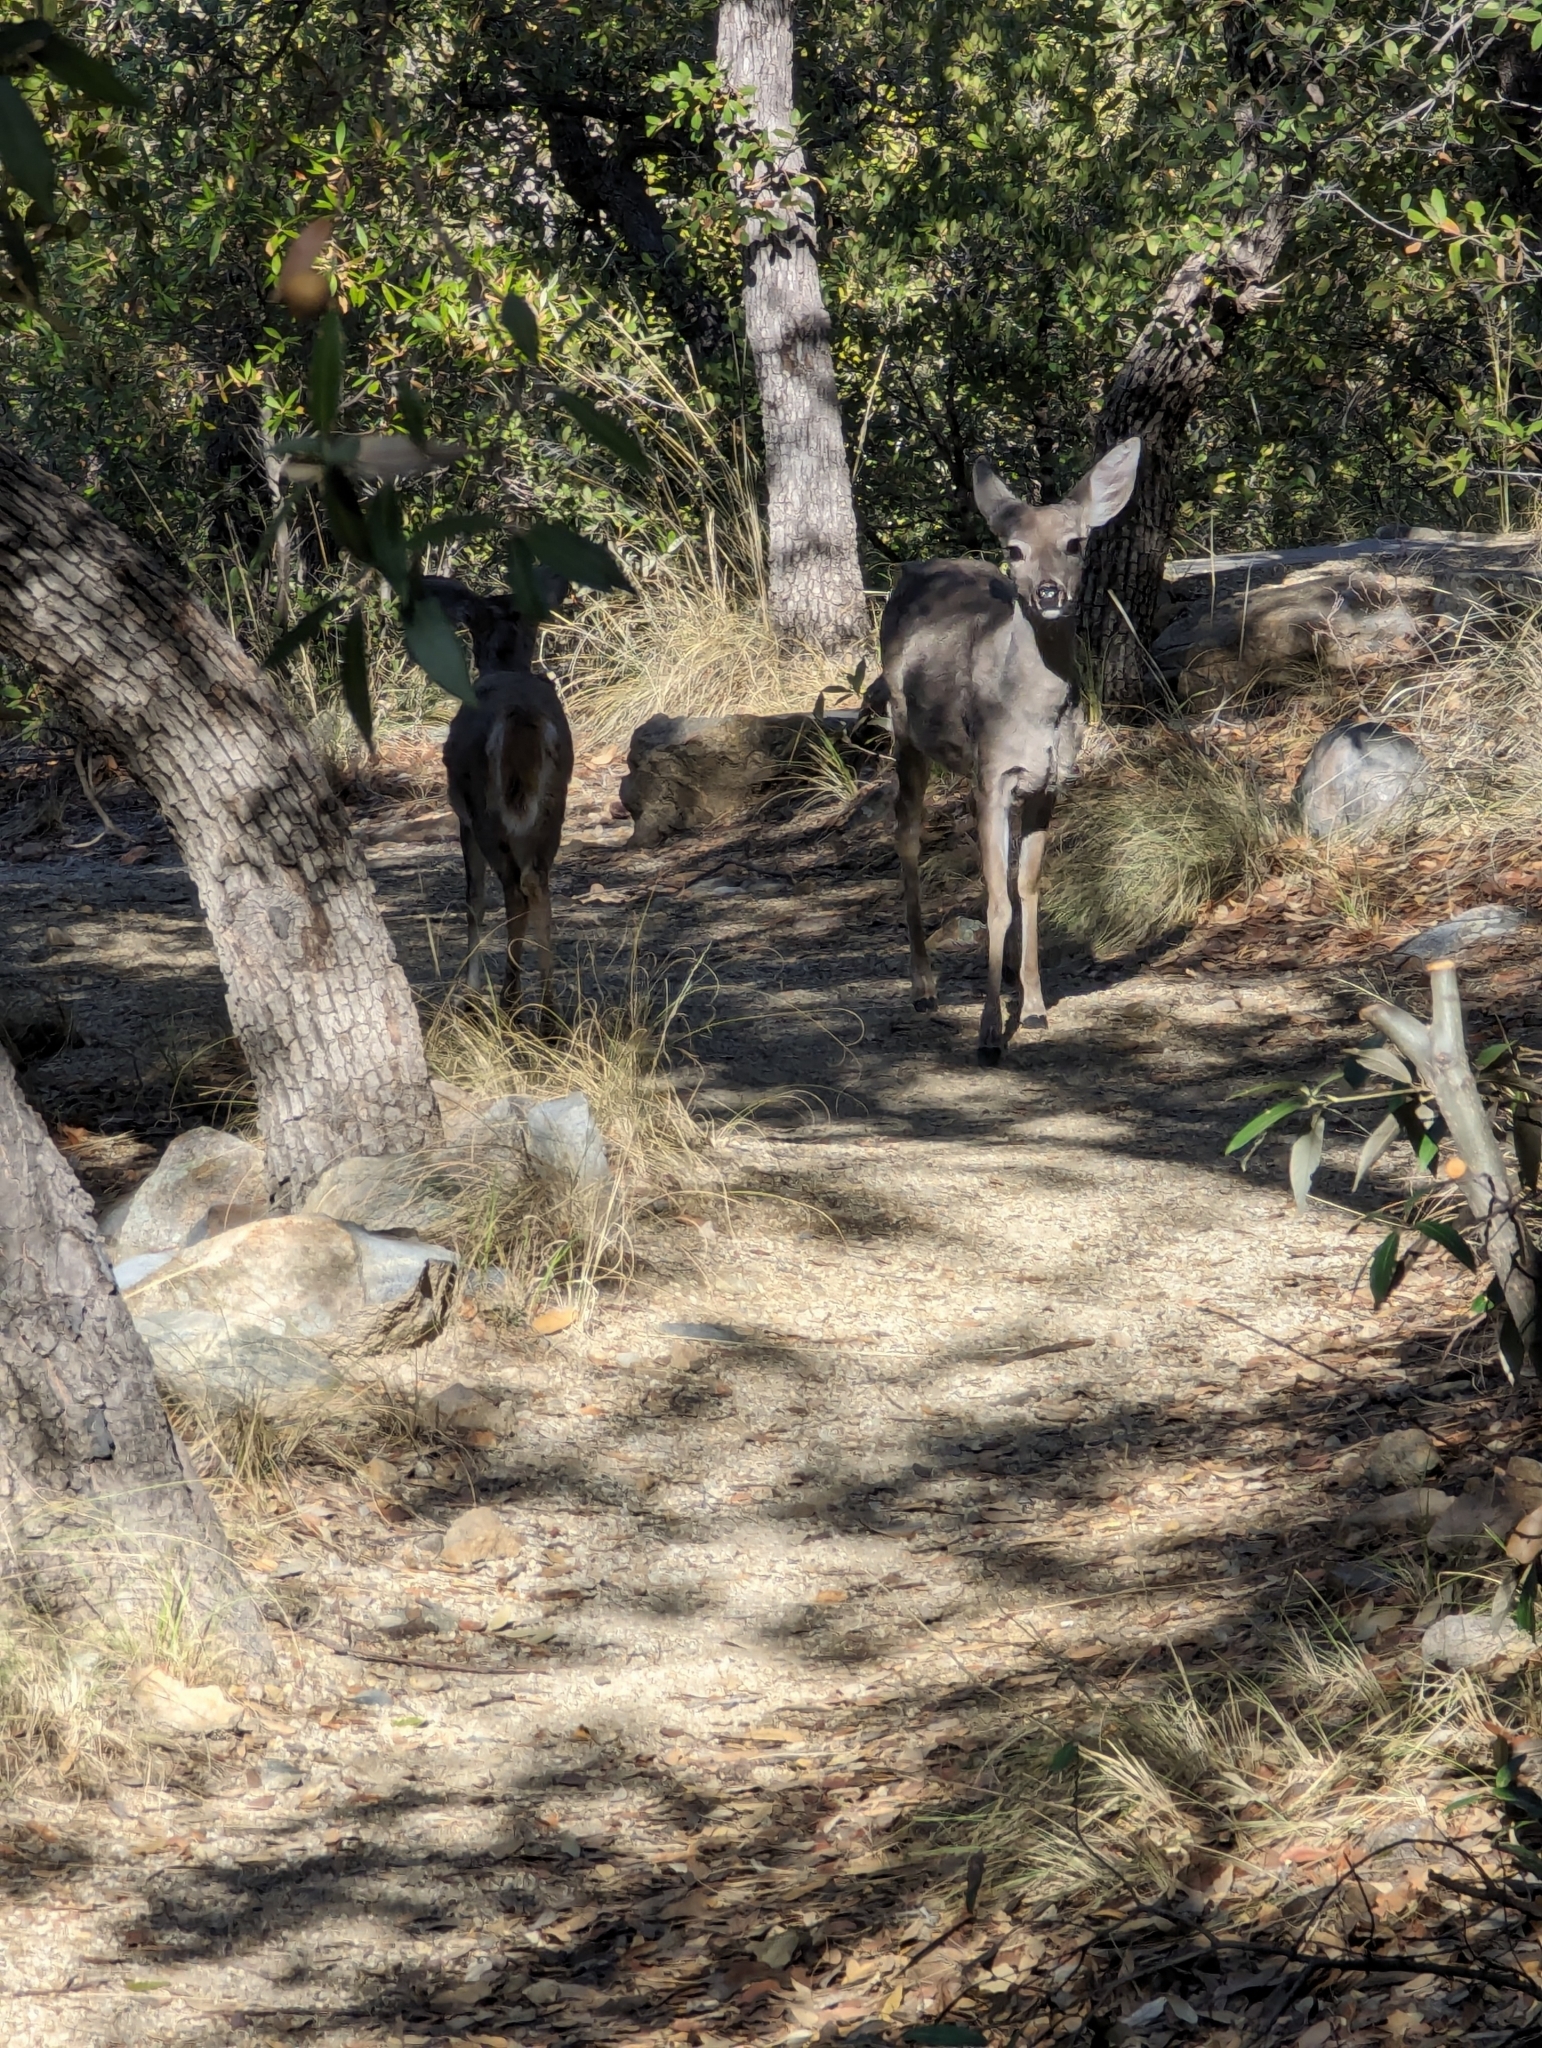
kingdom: Animalia
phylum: Chordata
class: Mammalia
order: Artiodactyla
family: Cervidae
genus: Odocoileus
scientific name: Odocoileus virginianus
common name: White-tailed deer
